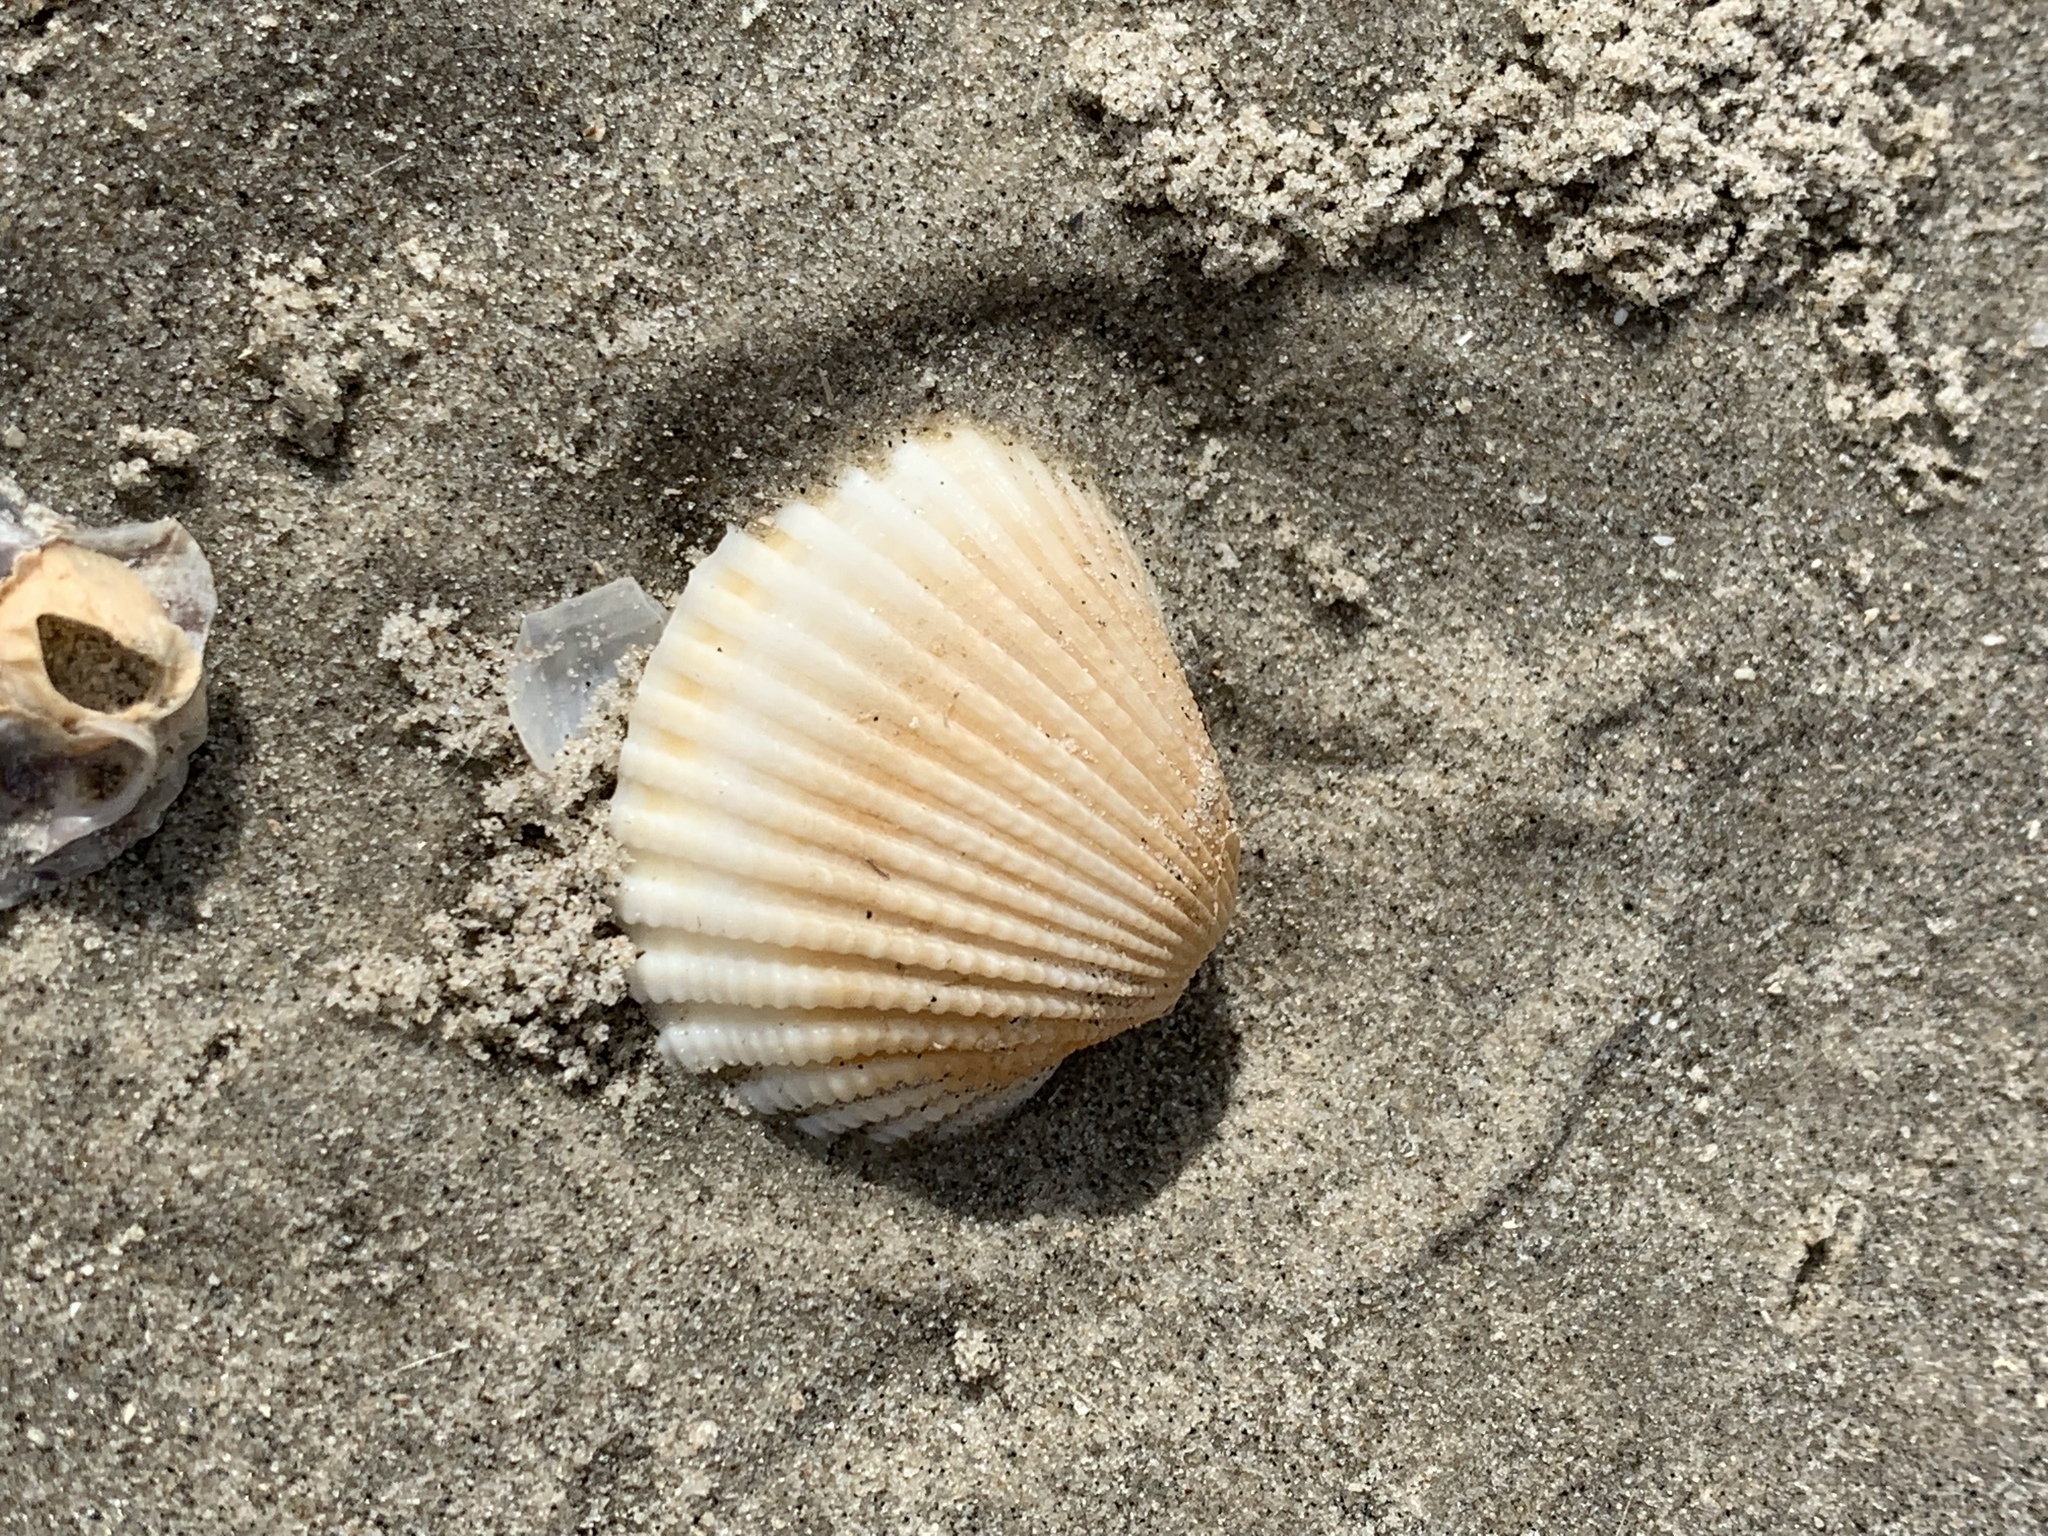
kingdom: Animalia
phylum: Mollusca
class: Bivalvia
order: Arcida
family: Arcidae
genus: Anadara
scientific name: Anadara brasiliana
